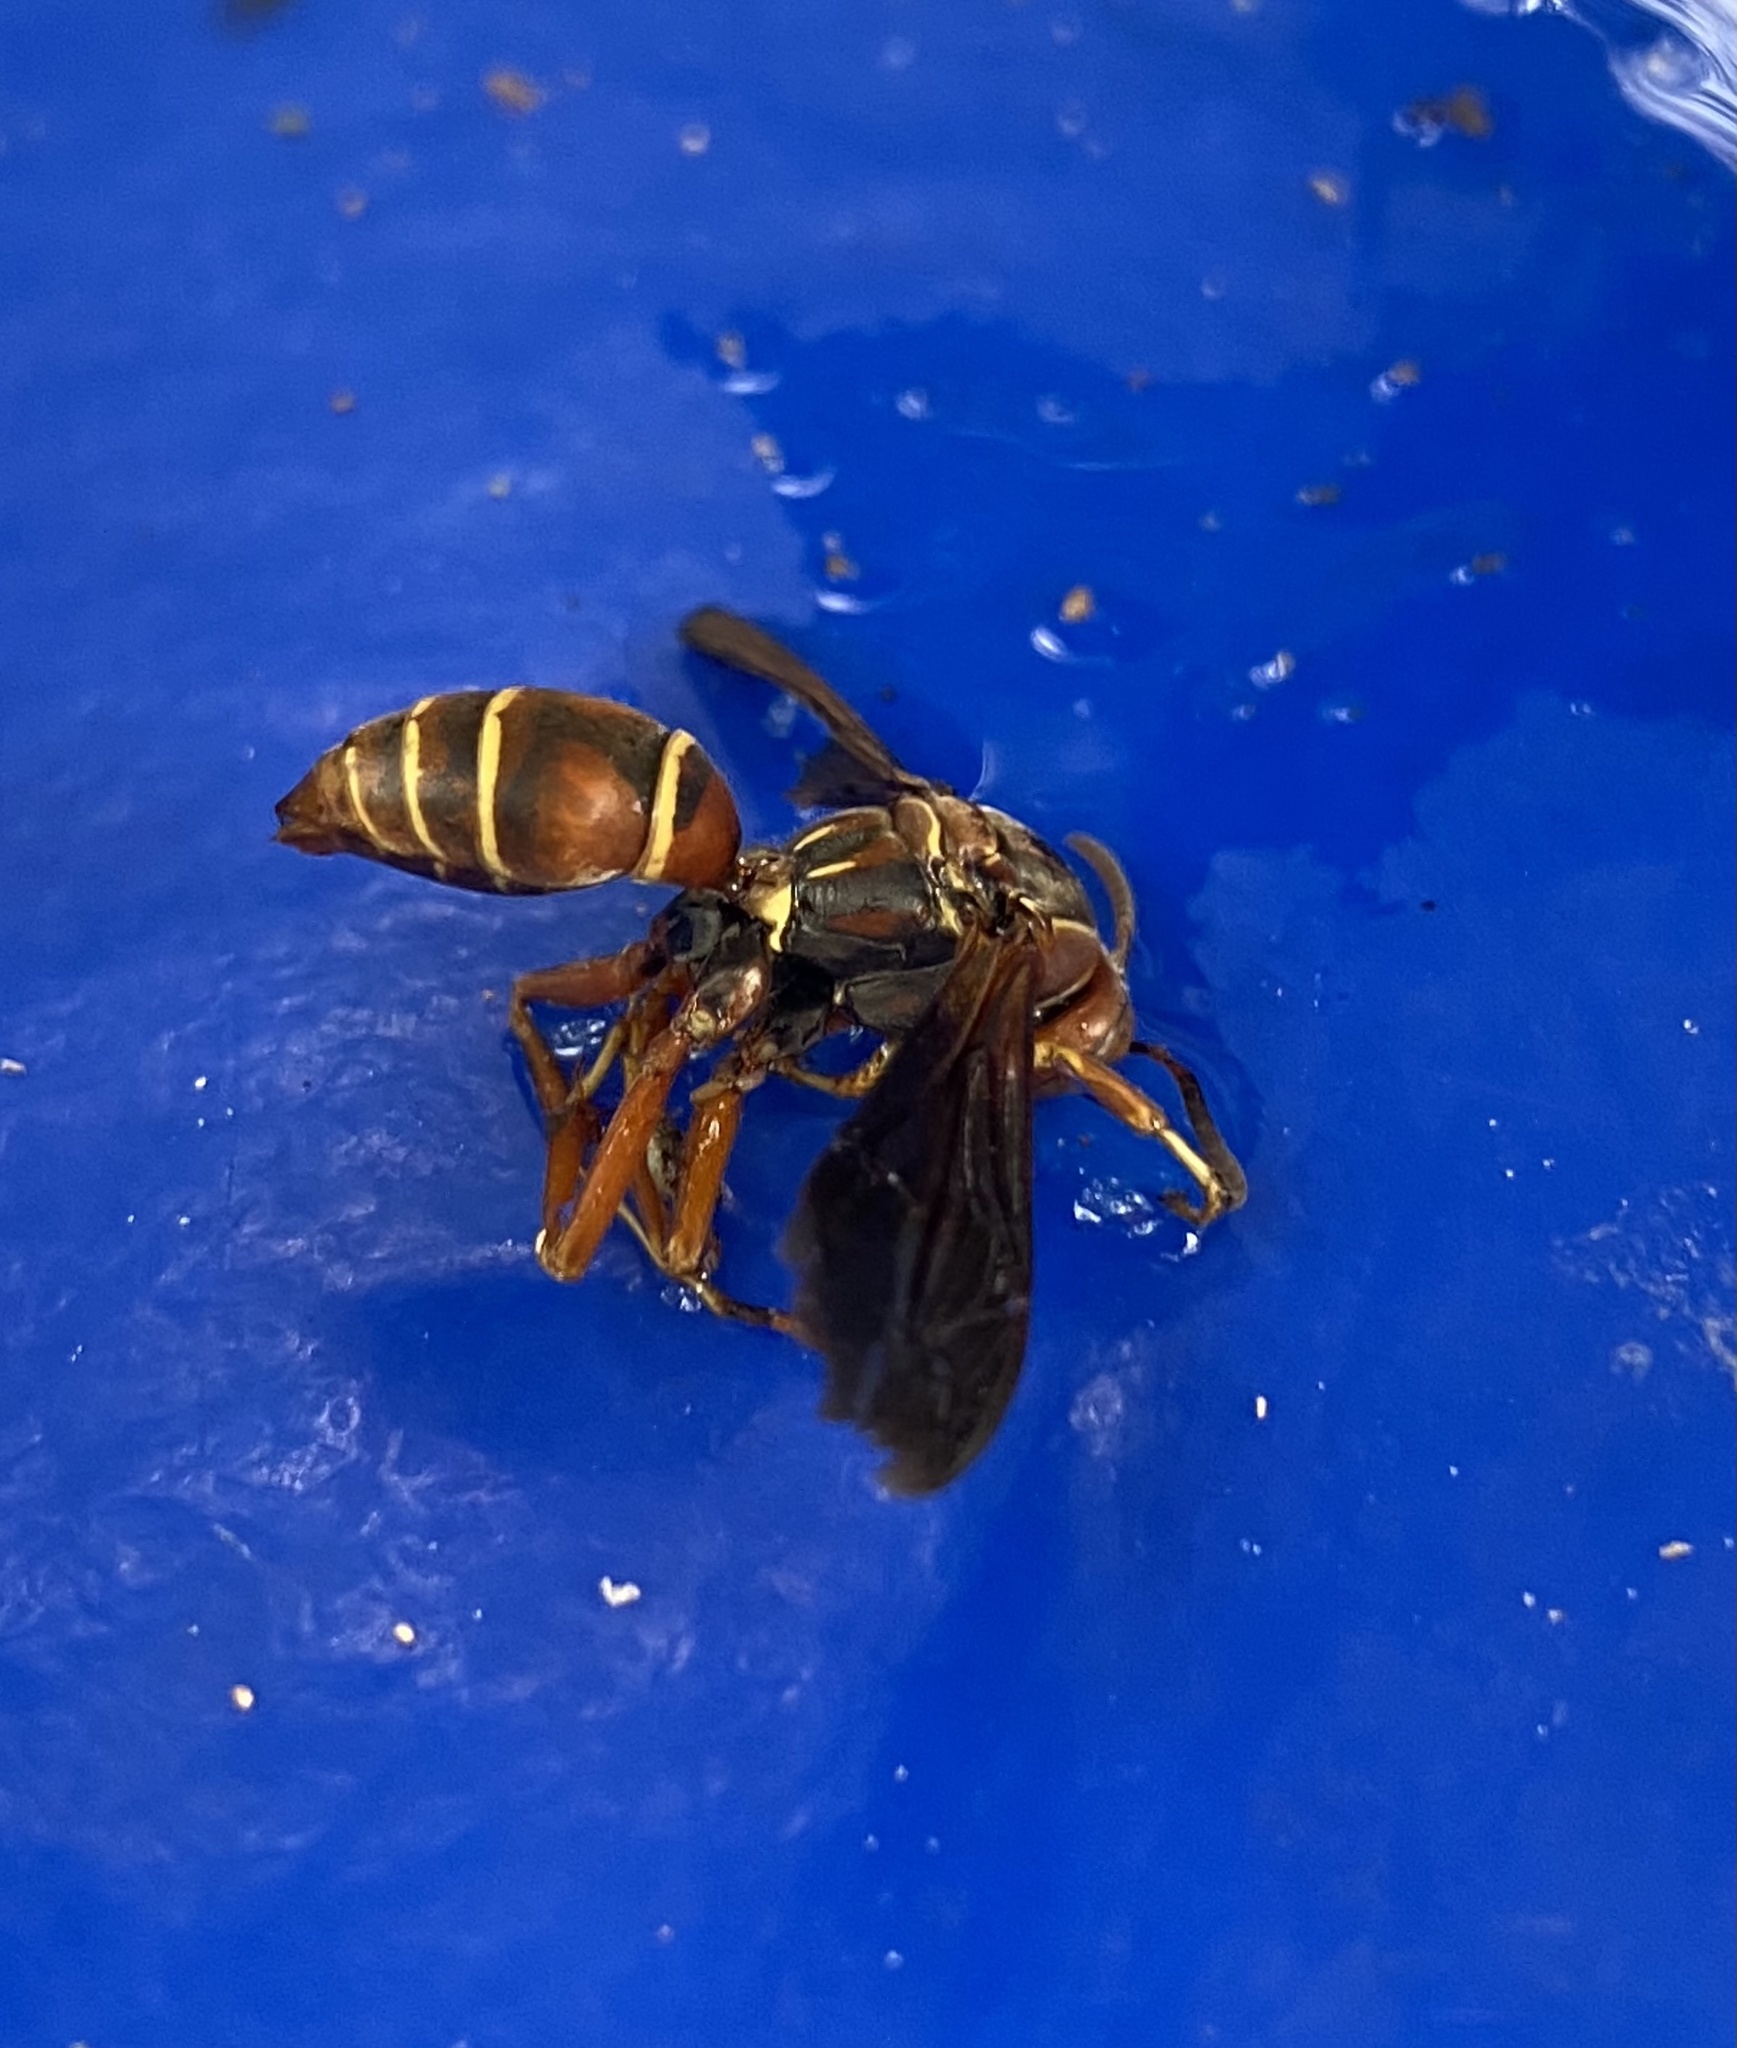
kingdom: Animalia
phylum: Arthropoda
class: Insecta
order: Hymenoptera
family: Eumenidae
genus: Polistes
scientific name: Polistes fuscatus
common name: Dark paper wasp
